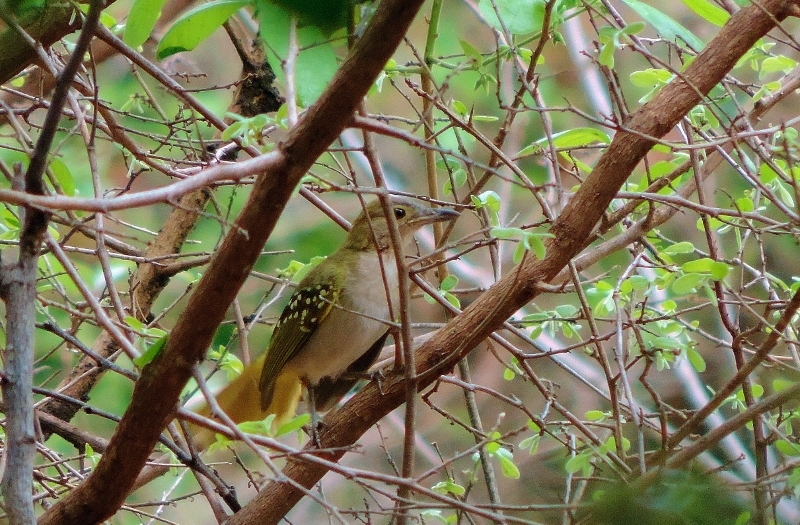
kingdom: Animalia
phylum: Chordata
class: Aves
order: Passeriformes
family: Nicatoridae
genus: Nicator
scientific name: Nicator gularis
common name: Eastern nicator
